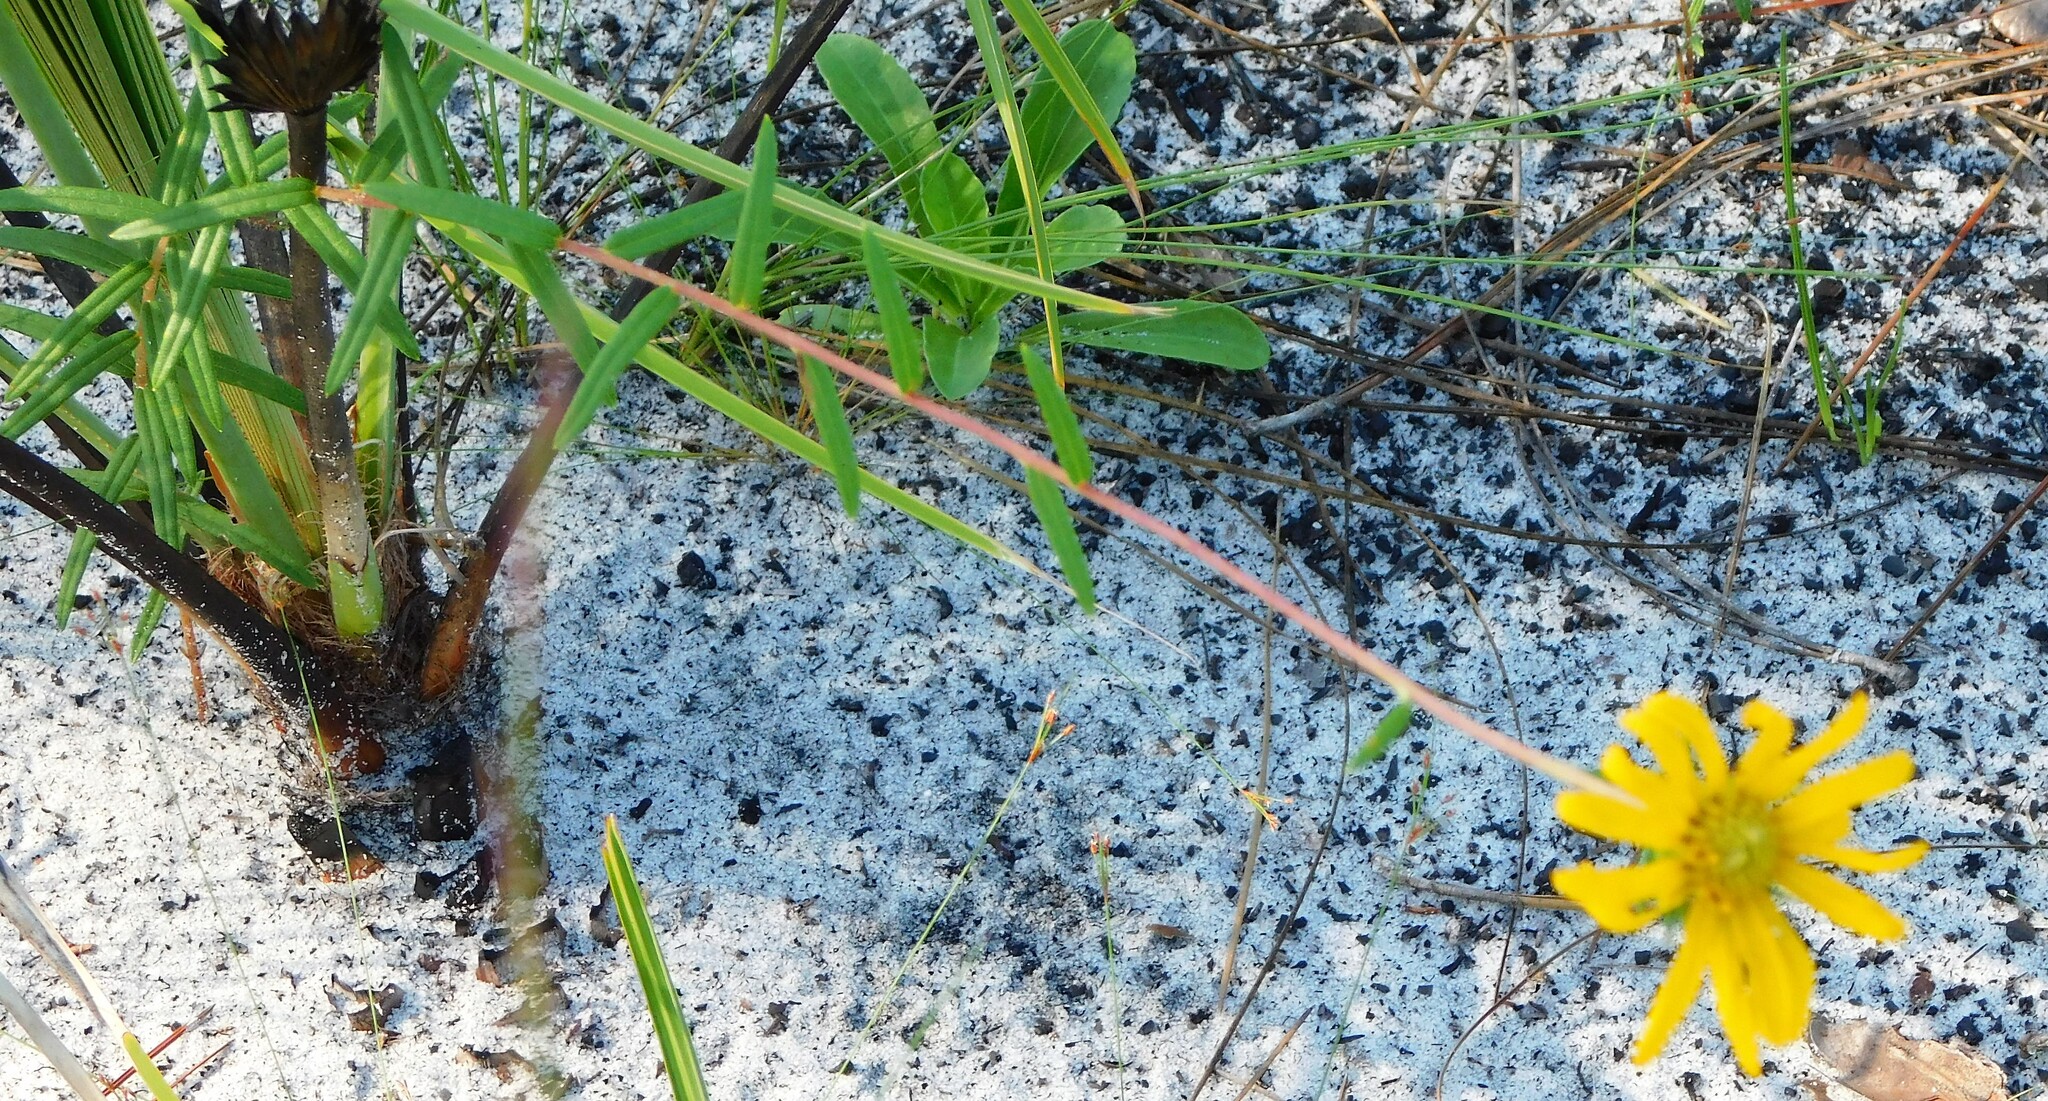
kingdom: Plantae
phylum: Tracheophyta
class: Magnoliopsida
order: Asterales
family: Asteraceae
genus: Phoebanthus
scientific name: Phoebanthus grandiflora
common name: Florida false sunflower
